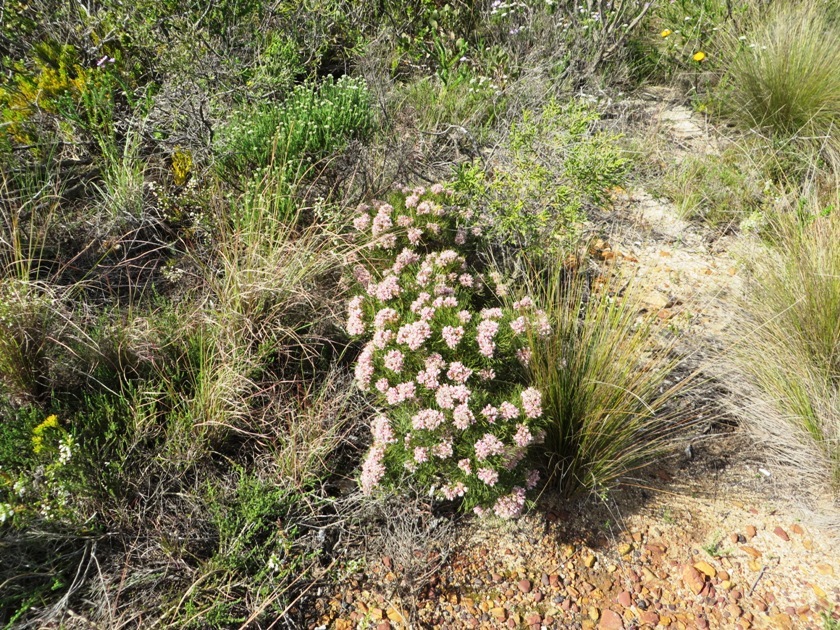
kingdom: Plantae
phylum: Tracheophyta
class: Magnoliopsida
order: Proteales
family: Proteaceae
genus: Serruria
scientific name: Serruria ascendens
